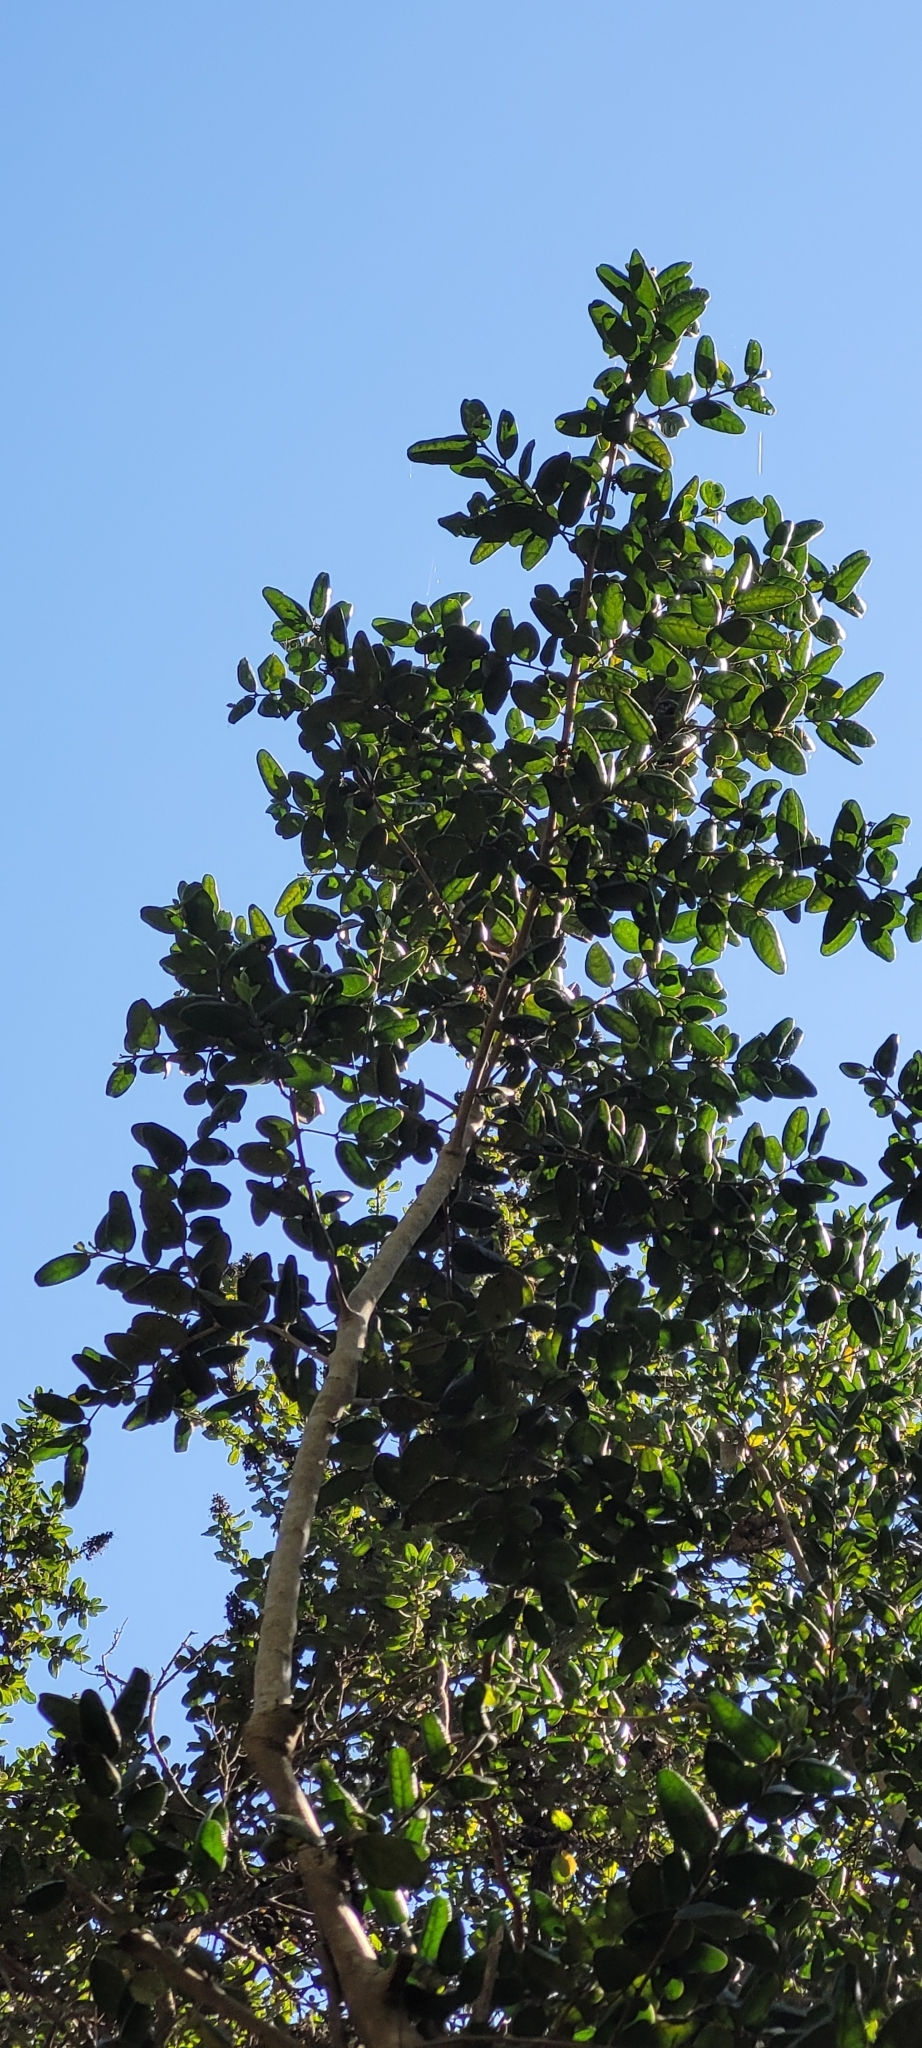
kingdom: Plantae
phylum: Tracheophyta
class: Magnoliopsida
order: Laurales
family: Monimiaceae
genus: Peumus
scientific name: Peumus boldus
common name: Boldo
